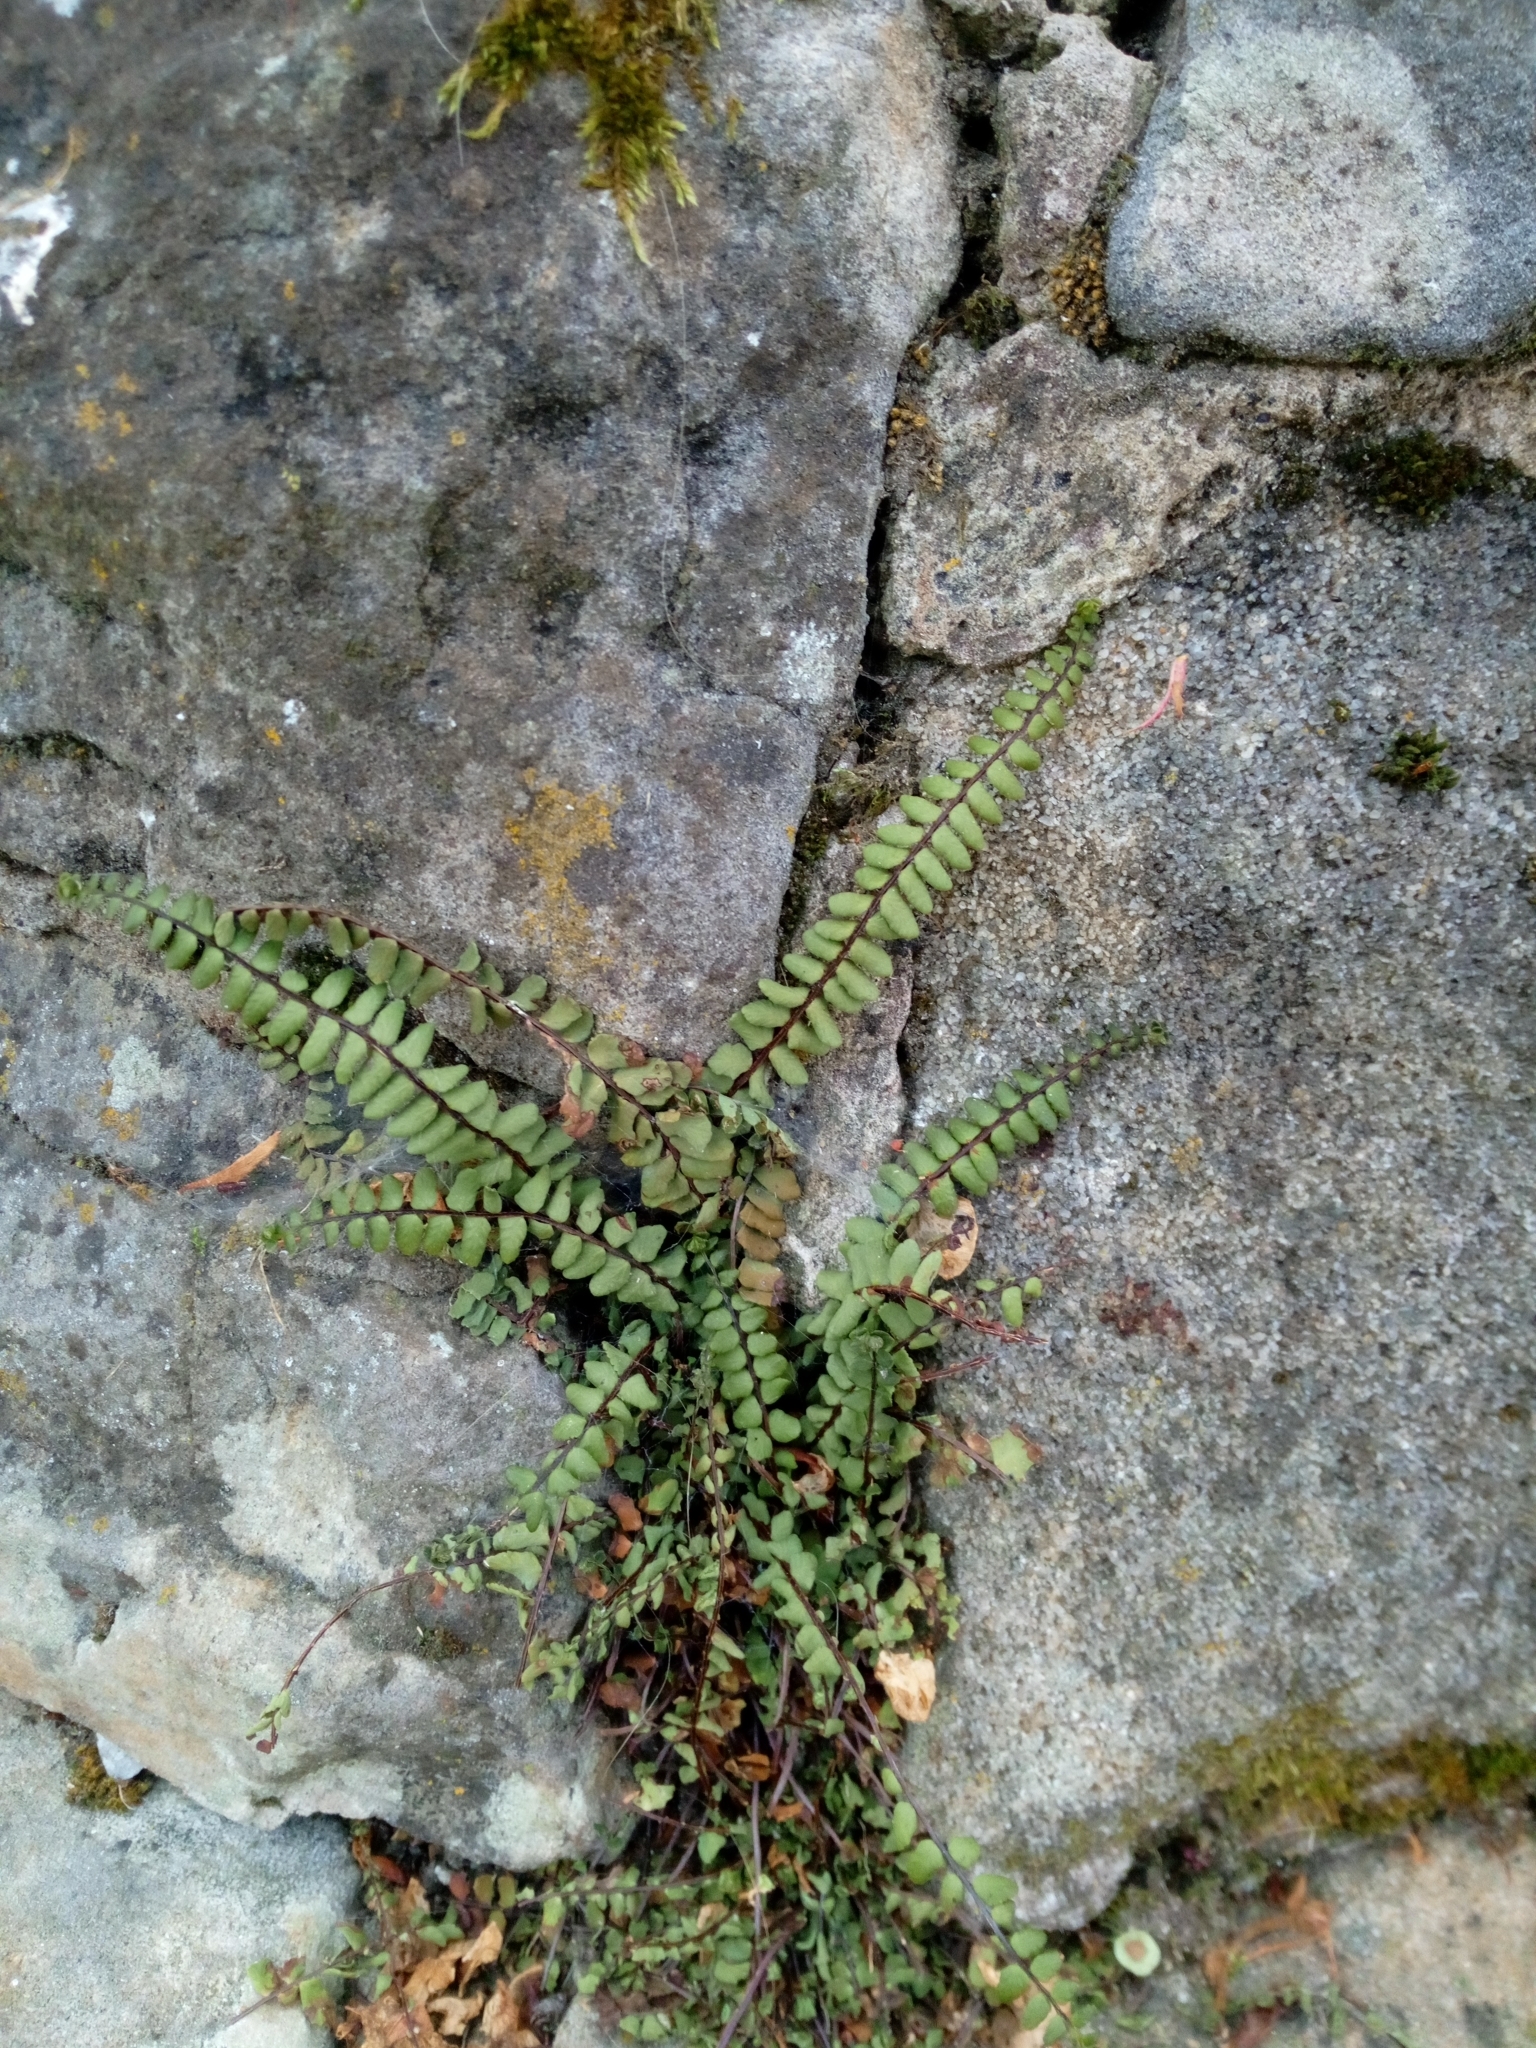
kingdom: Plantae
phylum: Tracheophyta
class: Polypodiopsida
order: Polypodiales
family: Aspleniaceae
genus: Asplenium
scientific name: Asplenium trichomanes
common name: Maidenhair spleenwort
